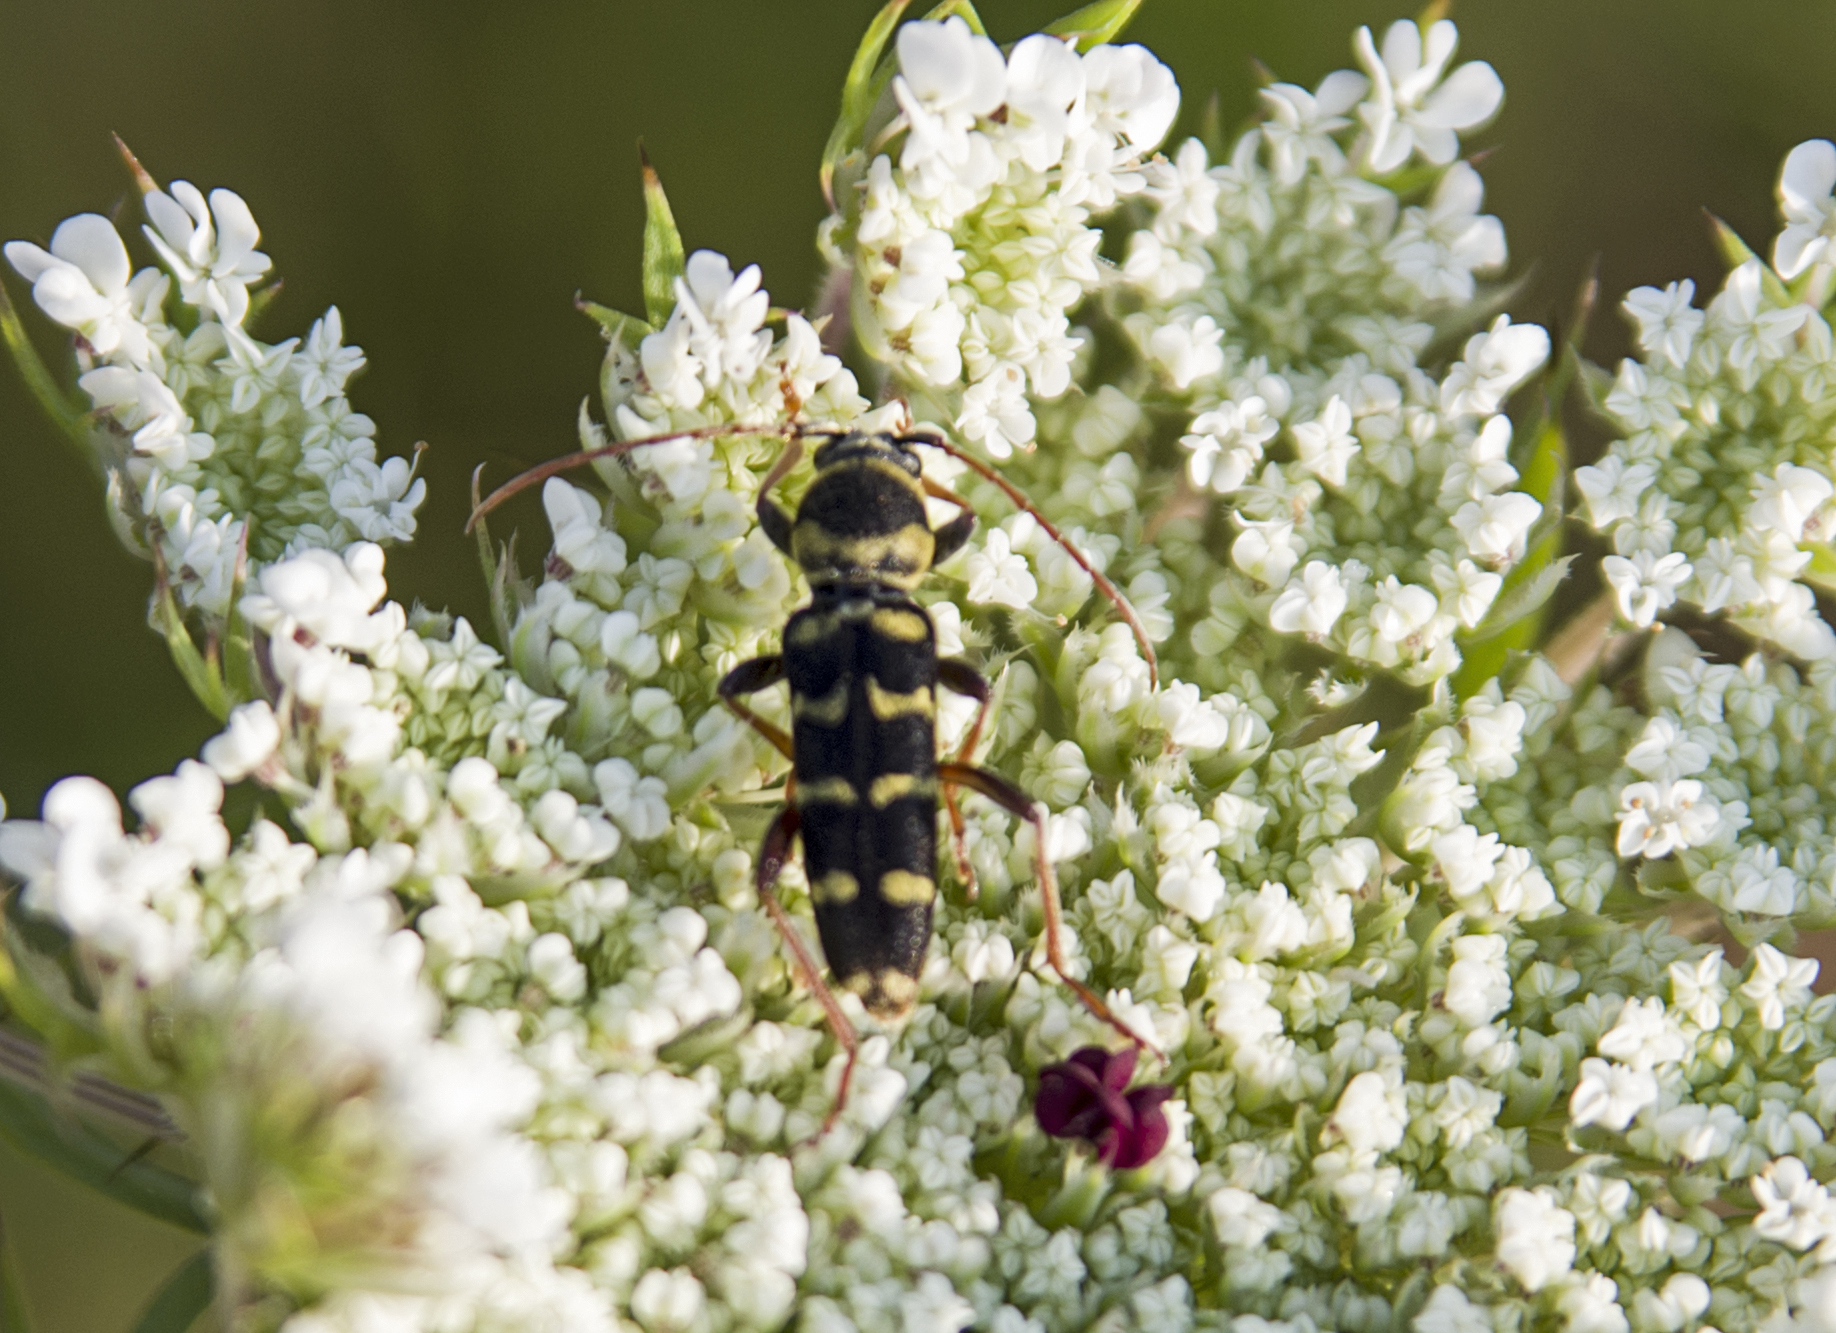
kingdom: Animalia
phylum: Arthropoda
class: Insecta
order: Coleoptera
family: Cerambycidae
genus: Plagionotus
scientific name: Plagionotus floralis
